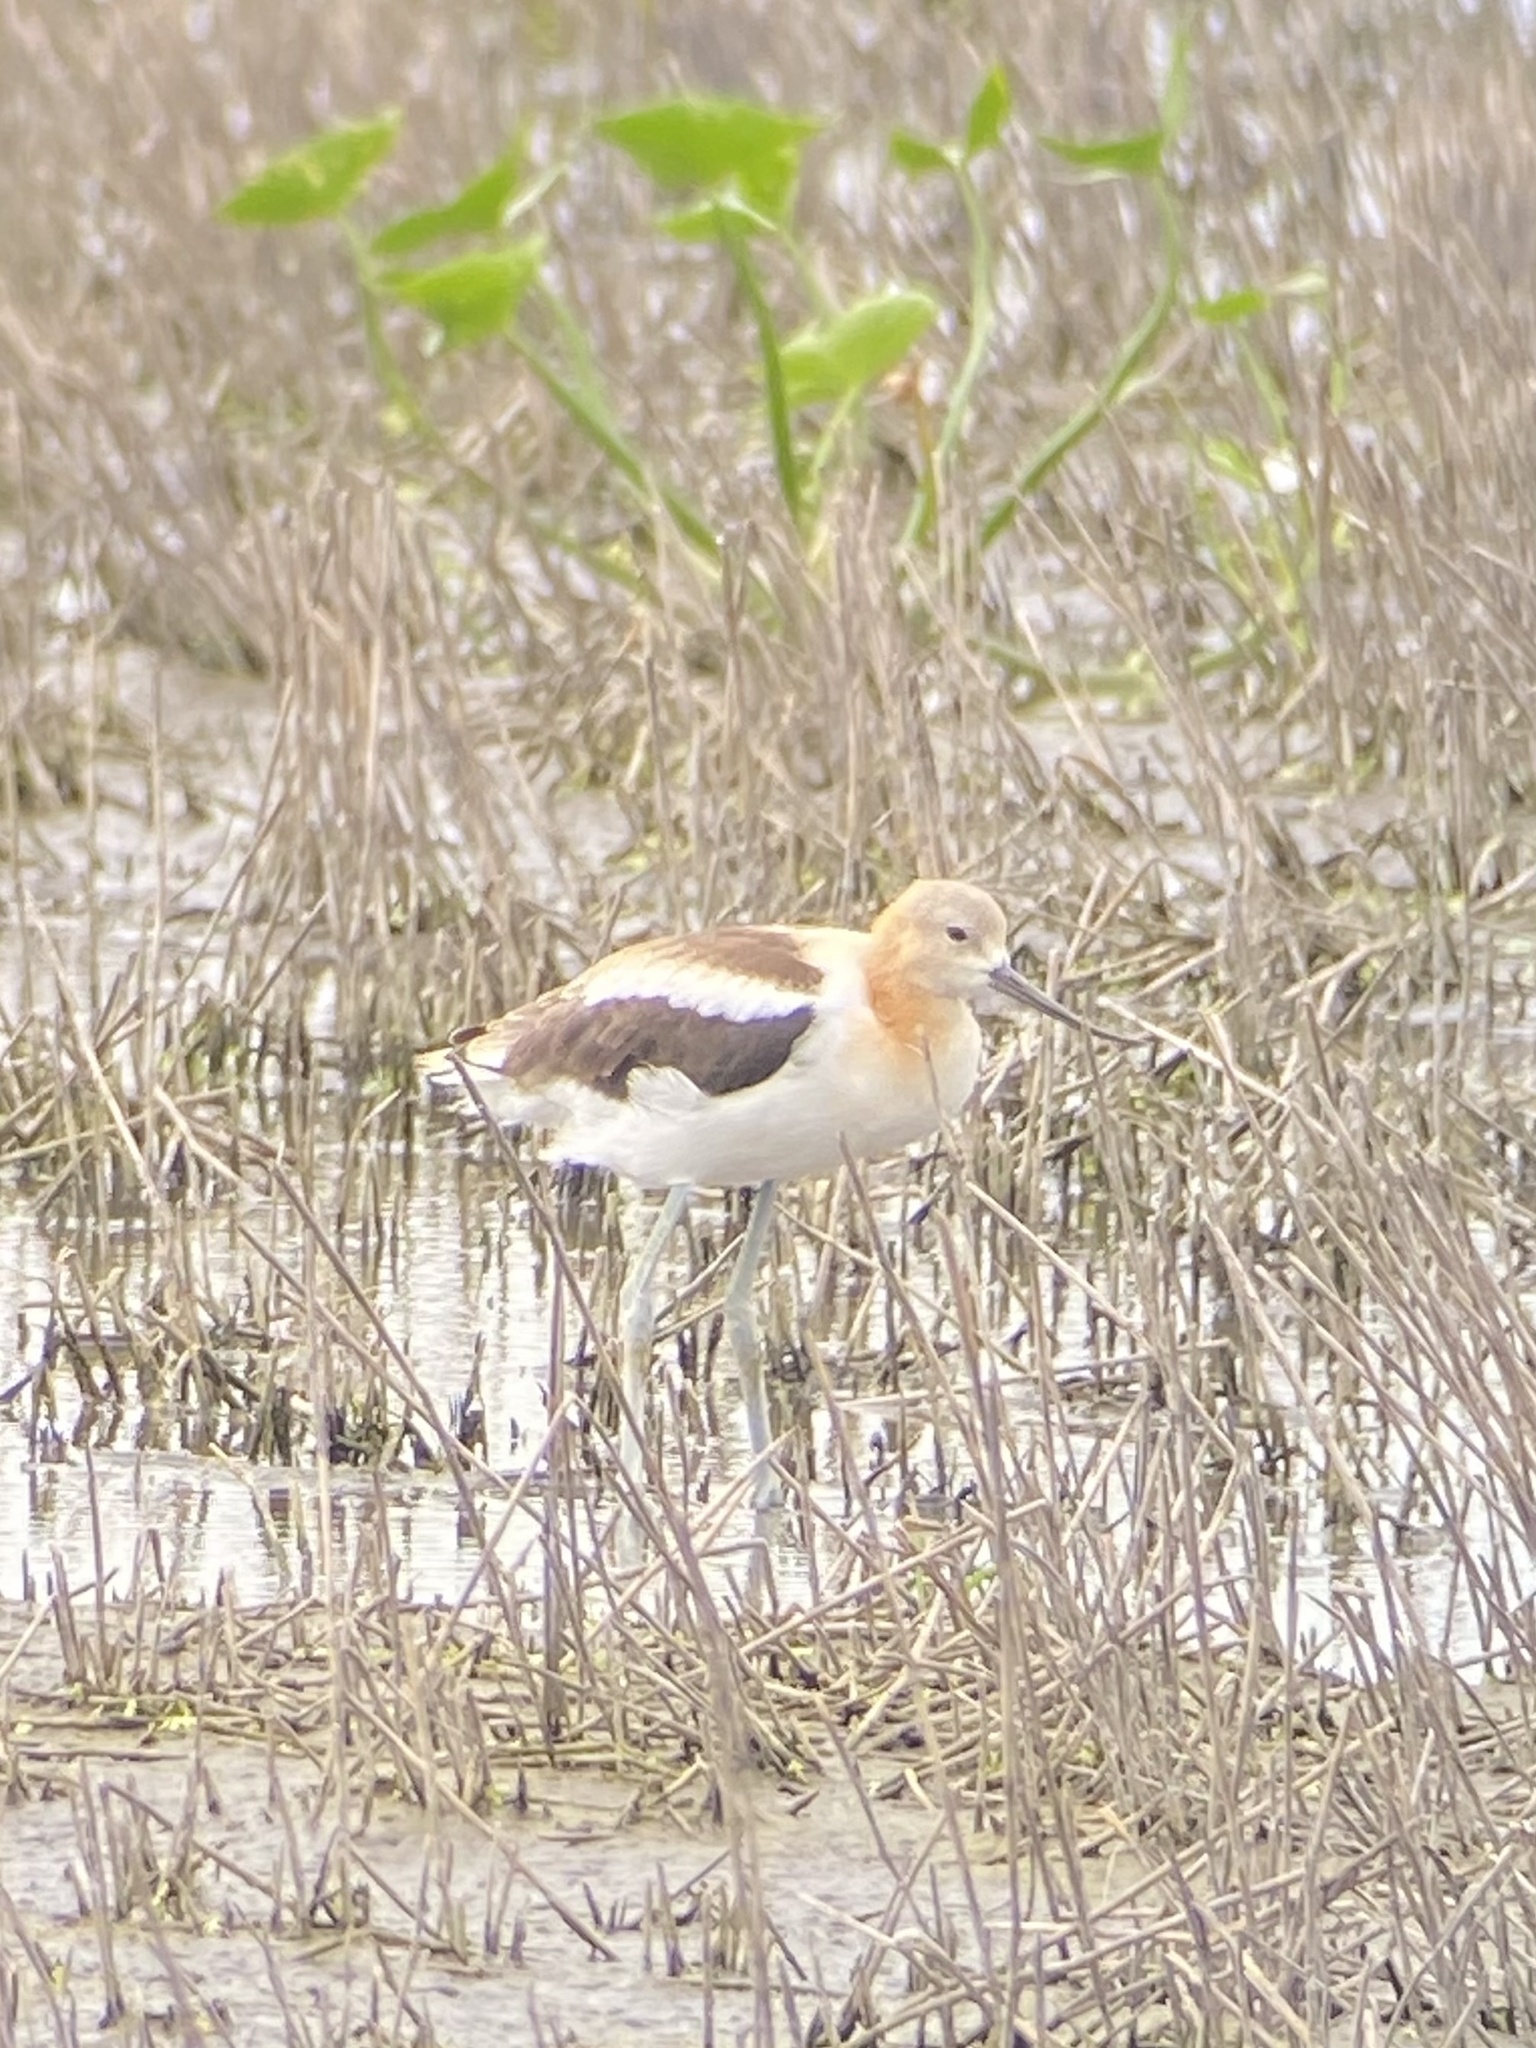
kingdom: Animalia
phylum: Chordata
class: Aves
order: Charadriiformes
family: Recurvirostridae
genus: Recurvirostra
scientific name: Recurvirostra americana
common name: American avocet
